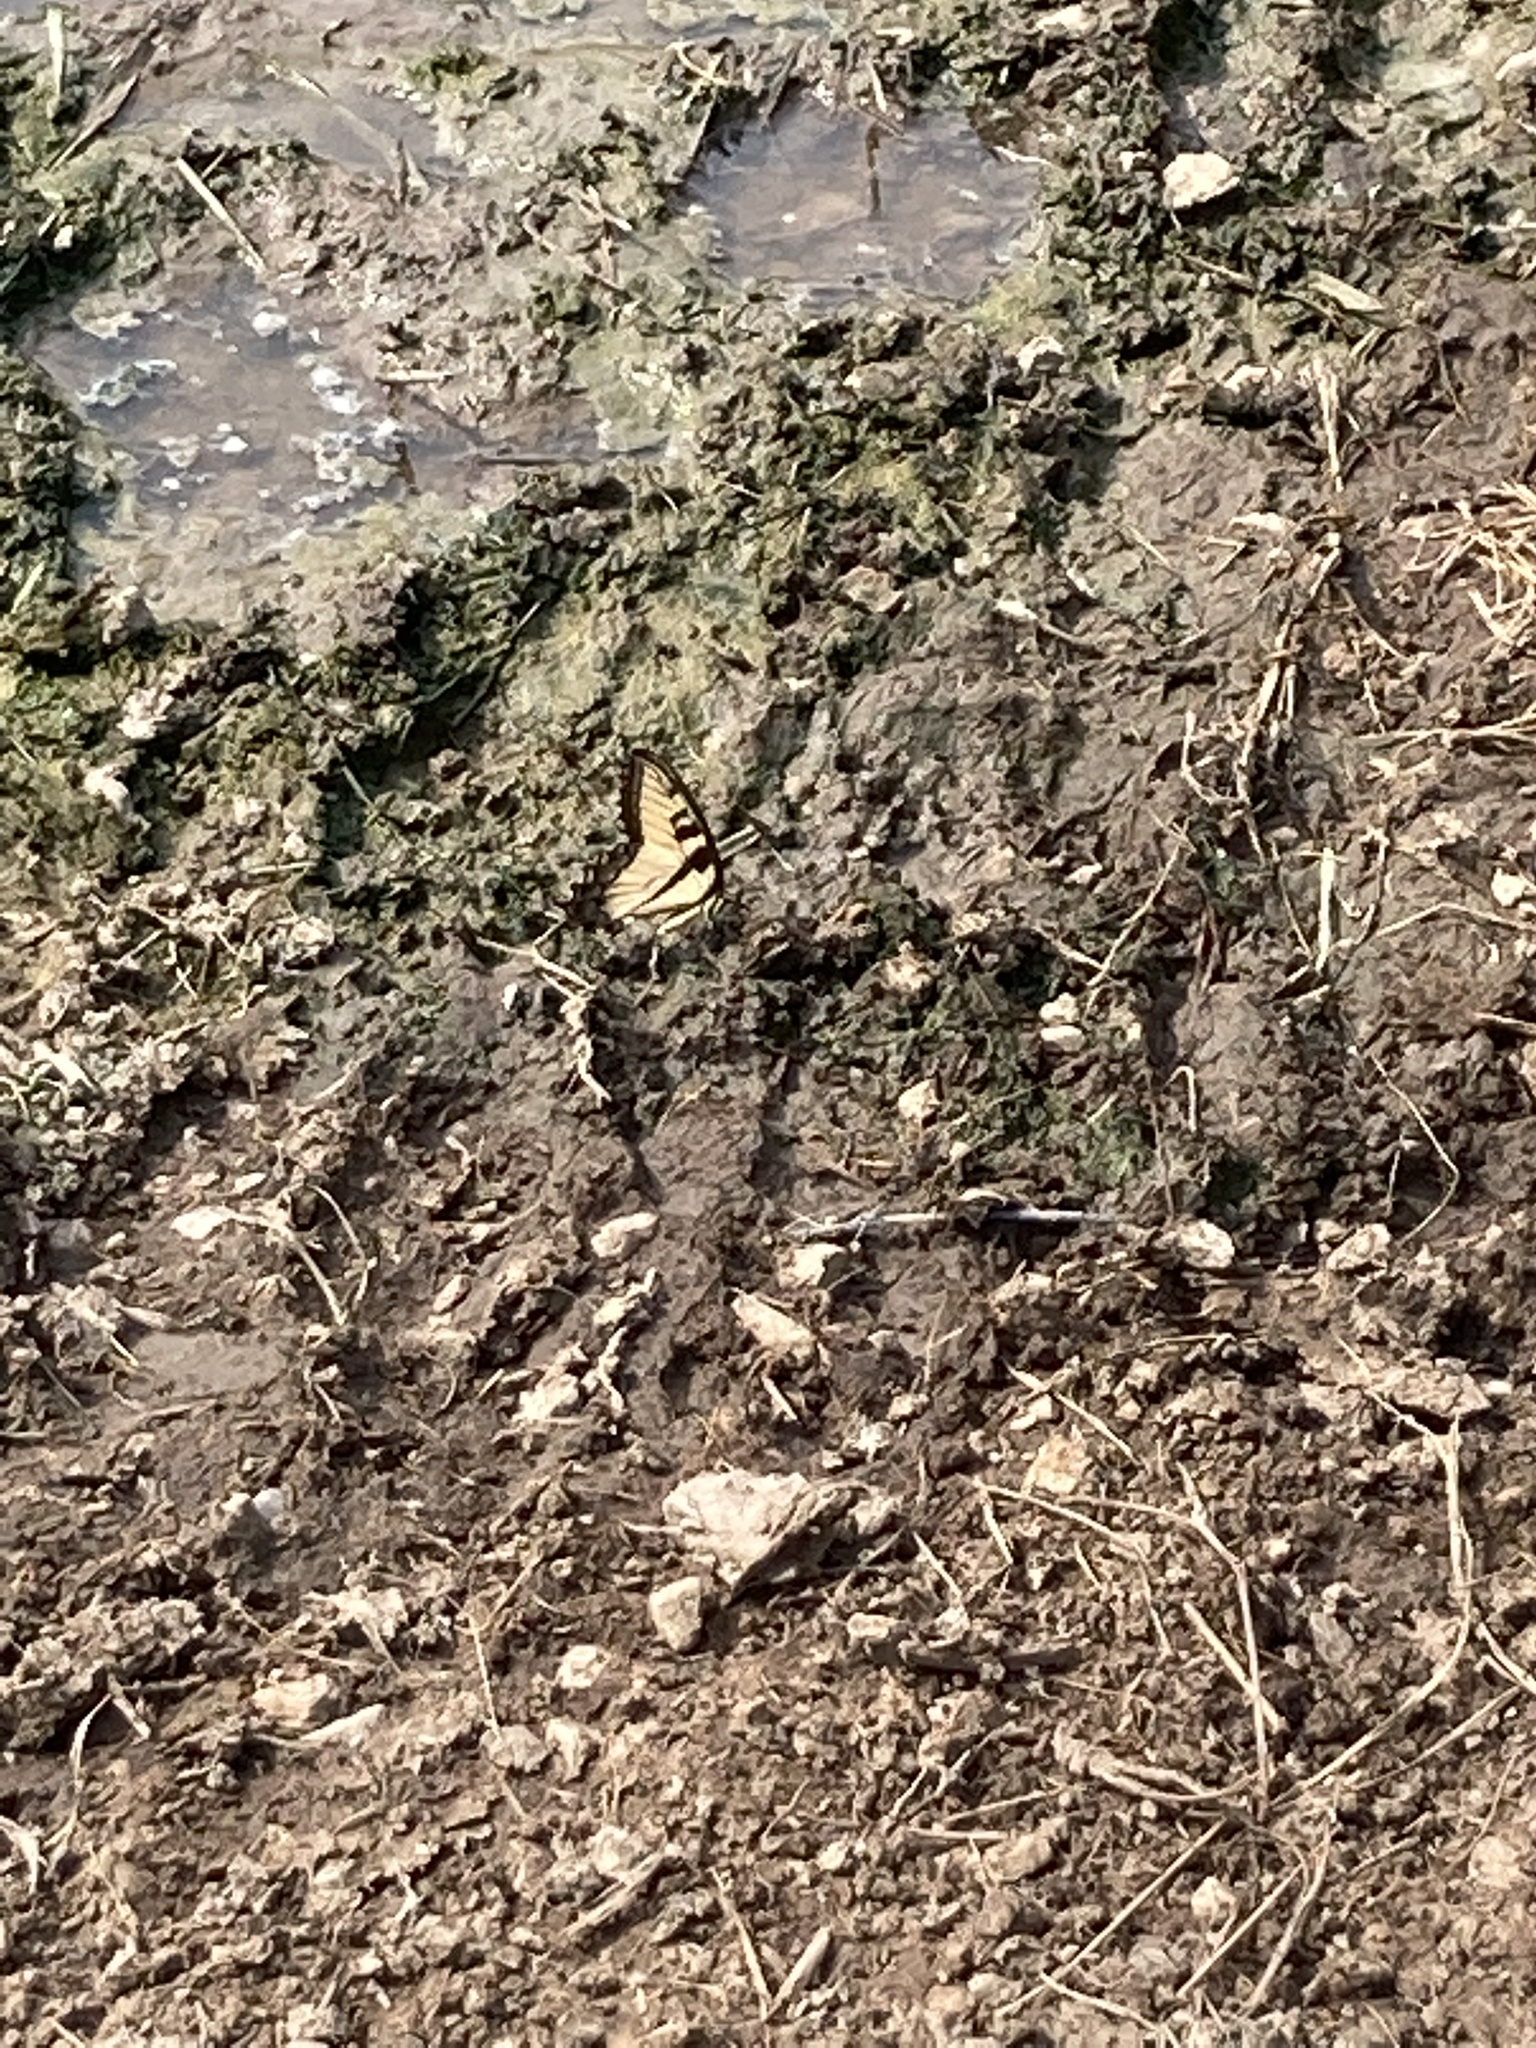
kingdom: Animalia
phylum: Arthropoda
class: Insecta
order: Lepidoptera
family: Papilionidae
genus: Papilio
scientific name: Papilio glaucus
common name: Tiger swallowtail
